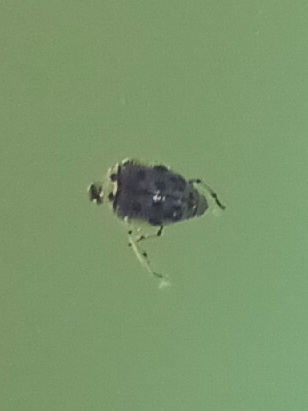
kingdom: Animalia
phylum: Arthropoda
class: Insecta
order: Coleoptera
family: Haliplidae
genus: Peltodytes
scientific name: Peltodytes edentulus
